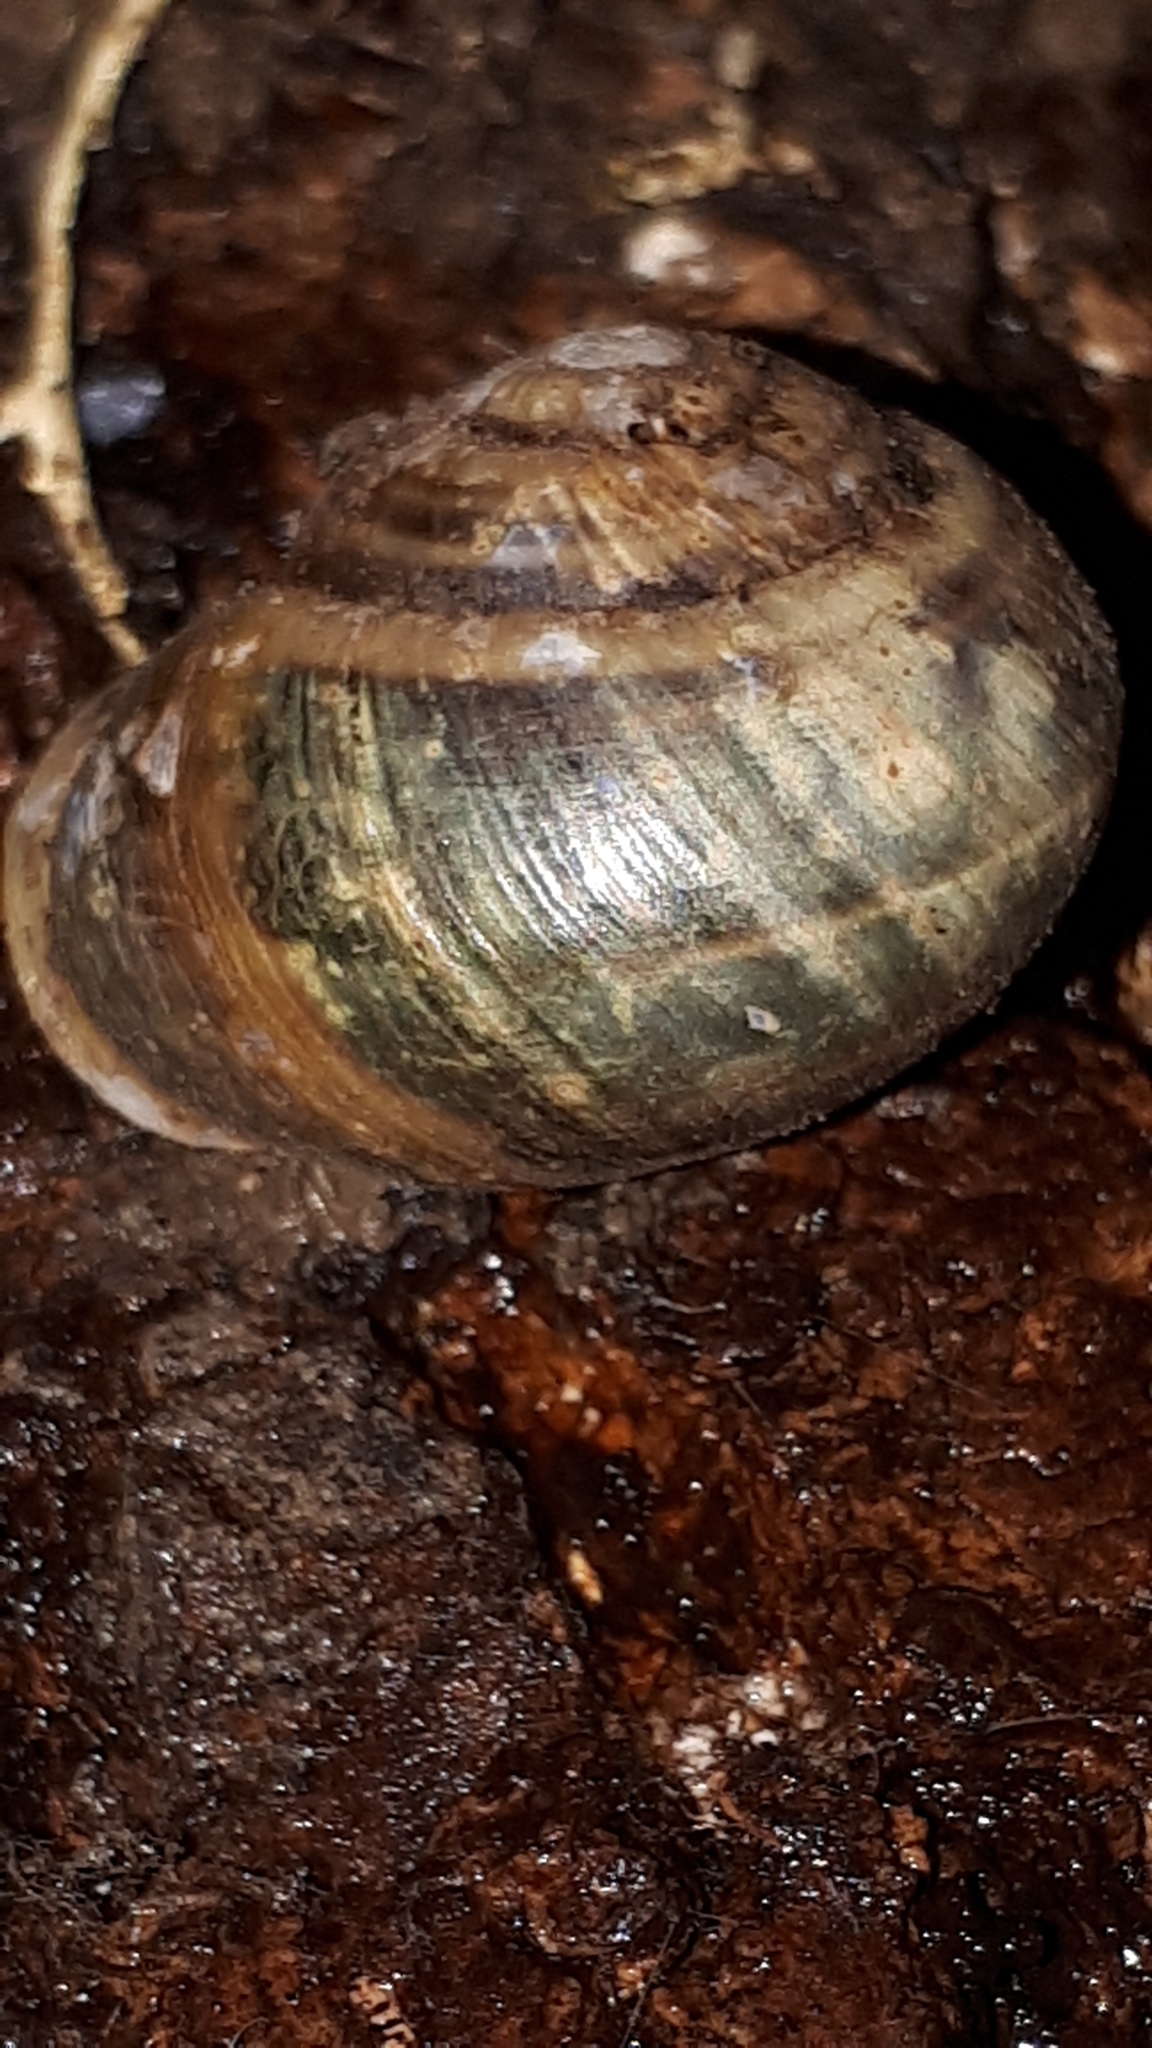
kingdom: Animalia
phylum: Mollusca
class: Gastropoda
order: Stylommatophora
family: Helicidae
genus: Cepaea
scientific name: Cepaea hortensis
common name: White-lip gardensnail
